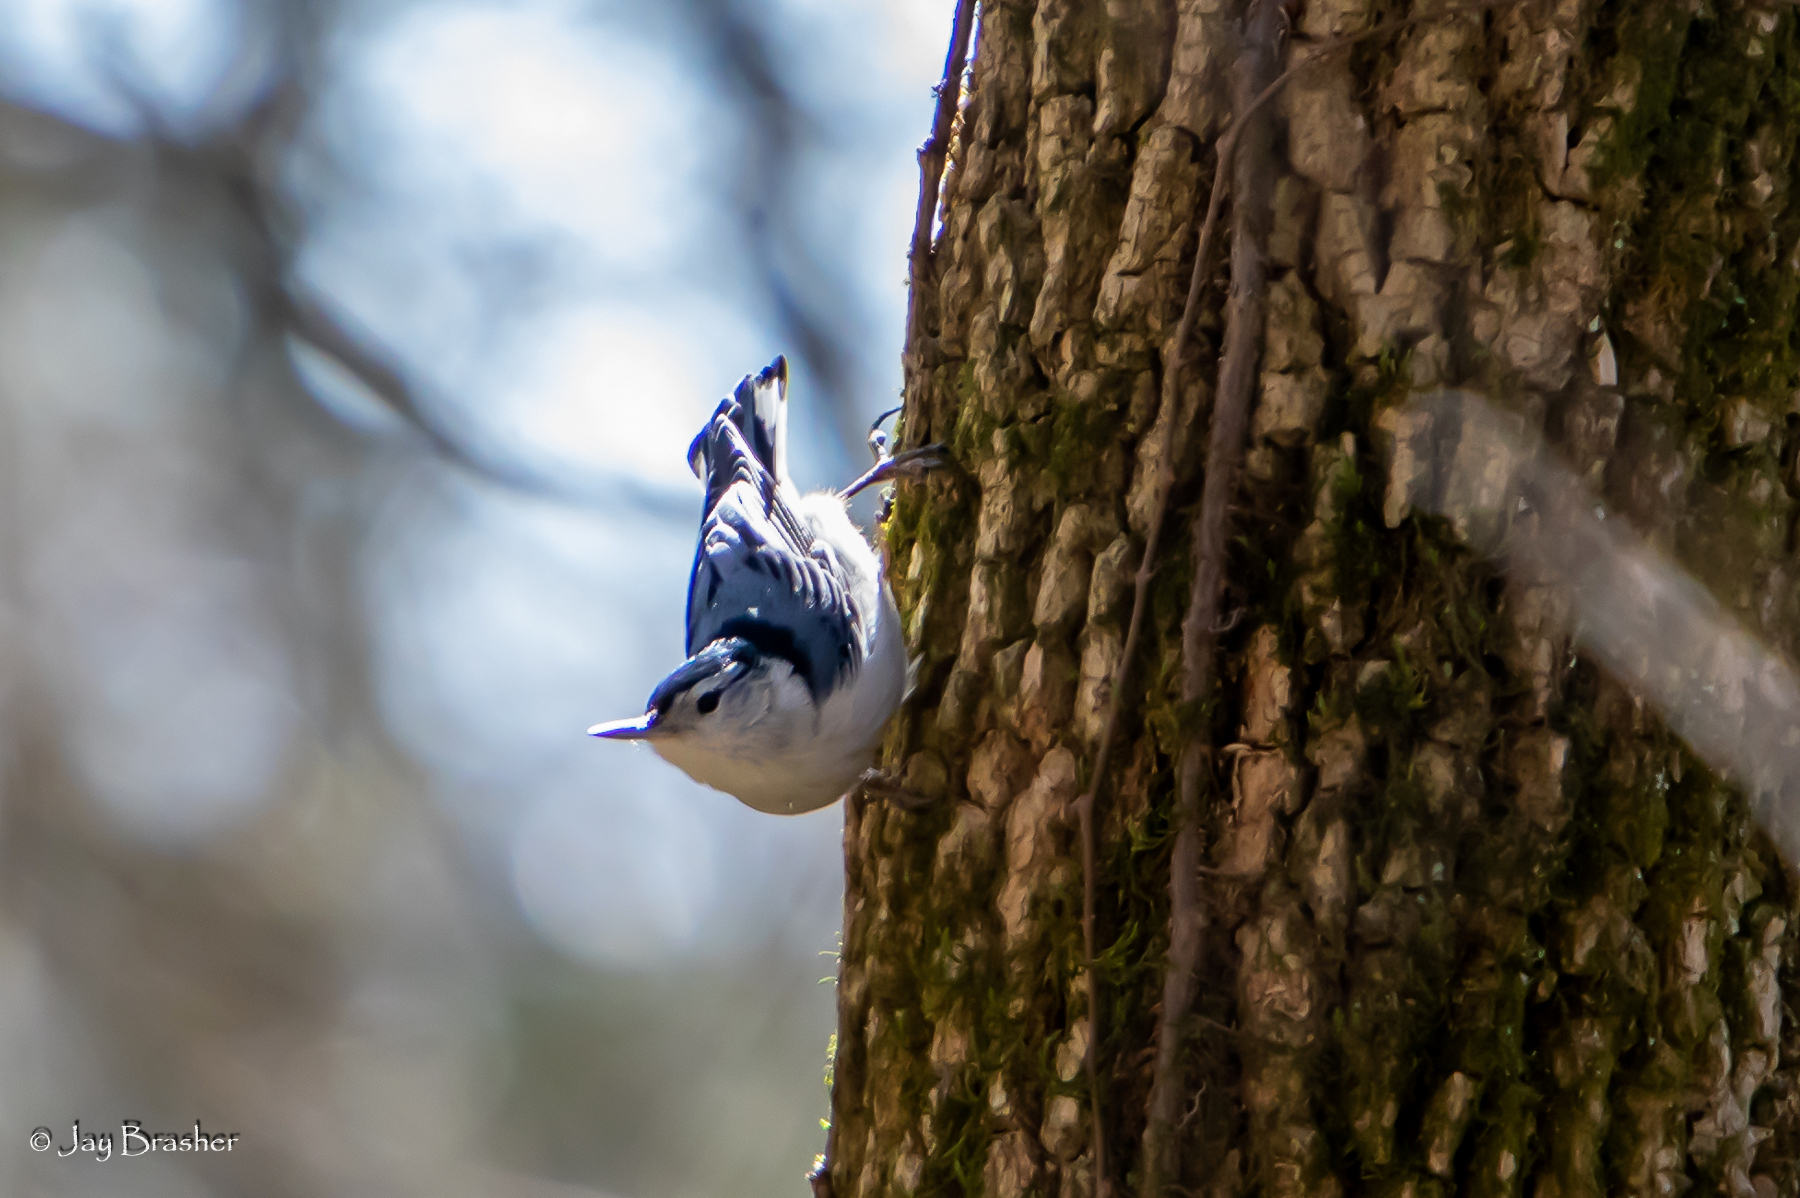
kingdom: Animalia
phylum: Chordata
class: Aves
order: Passeriformes
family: Sittidae
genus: Sitta
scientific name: Sitta carolinensis
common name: White-breasted nuthatch
